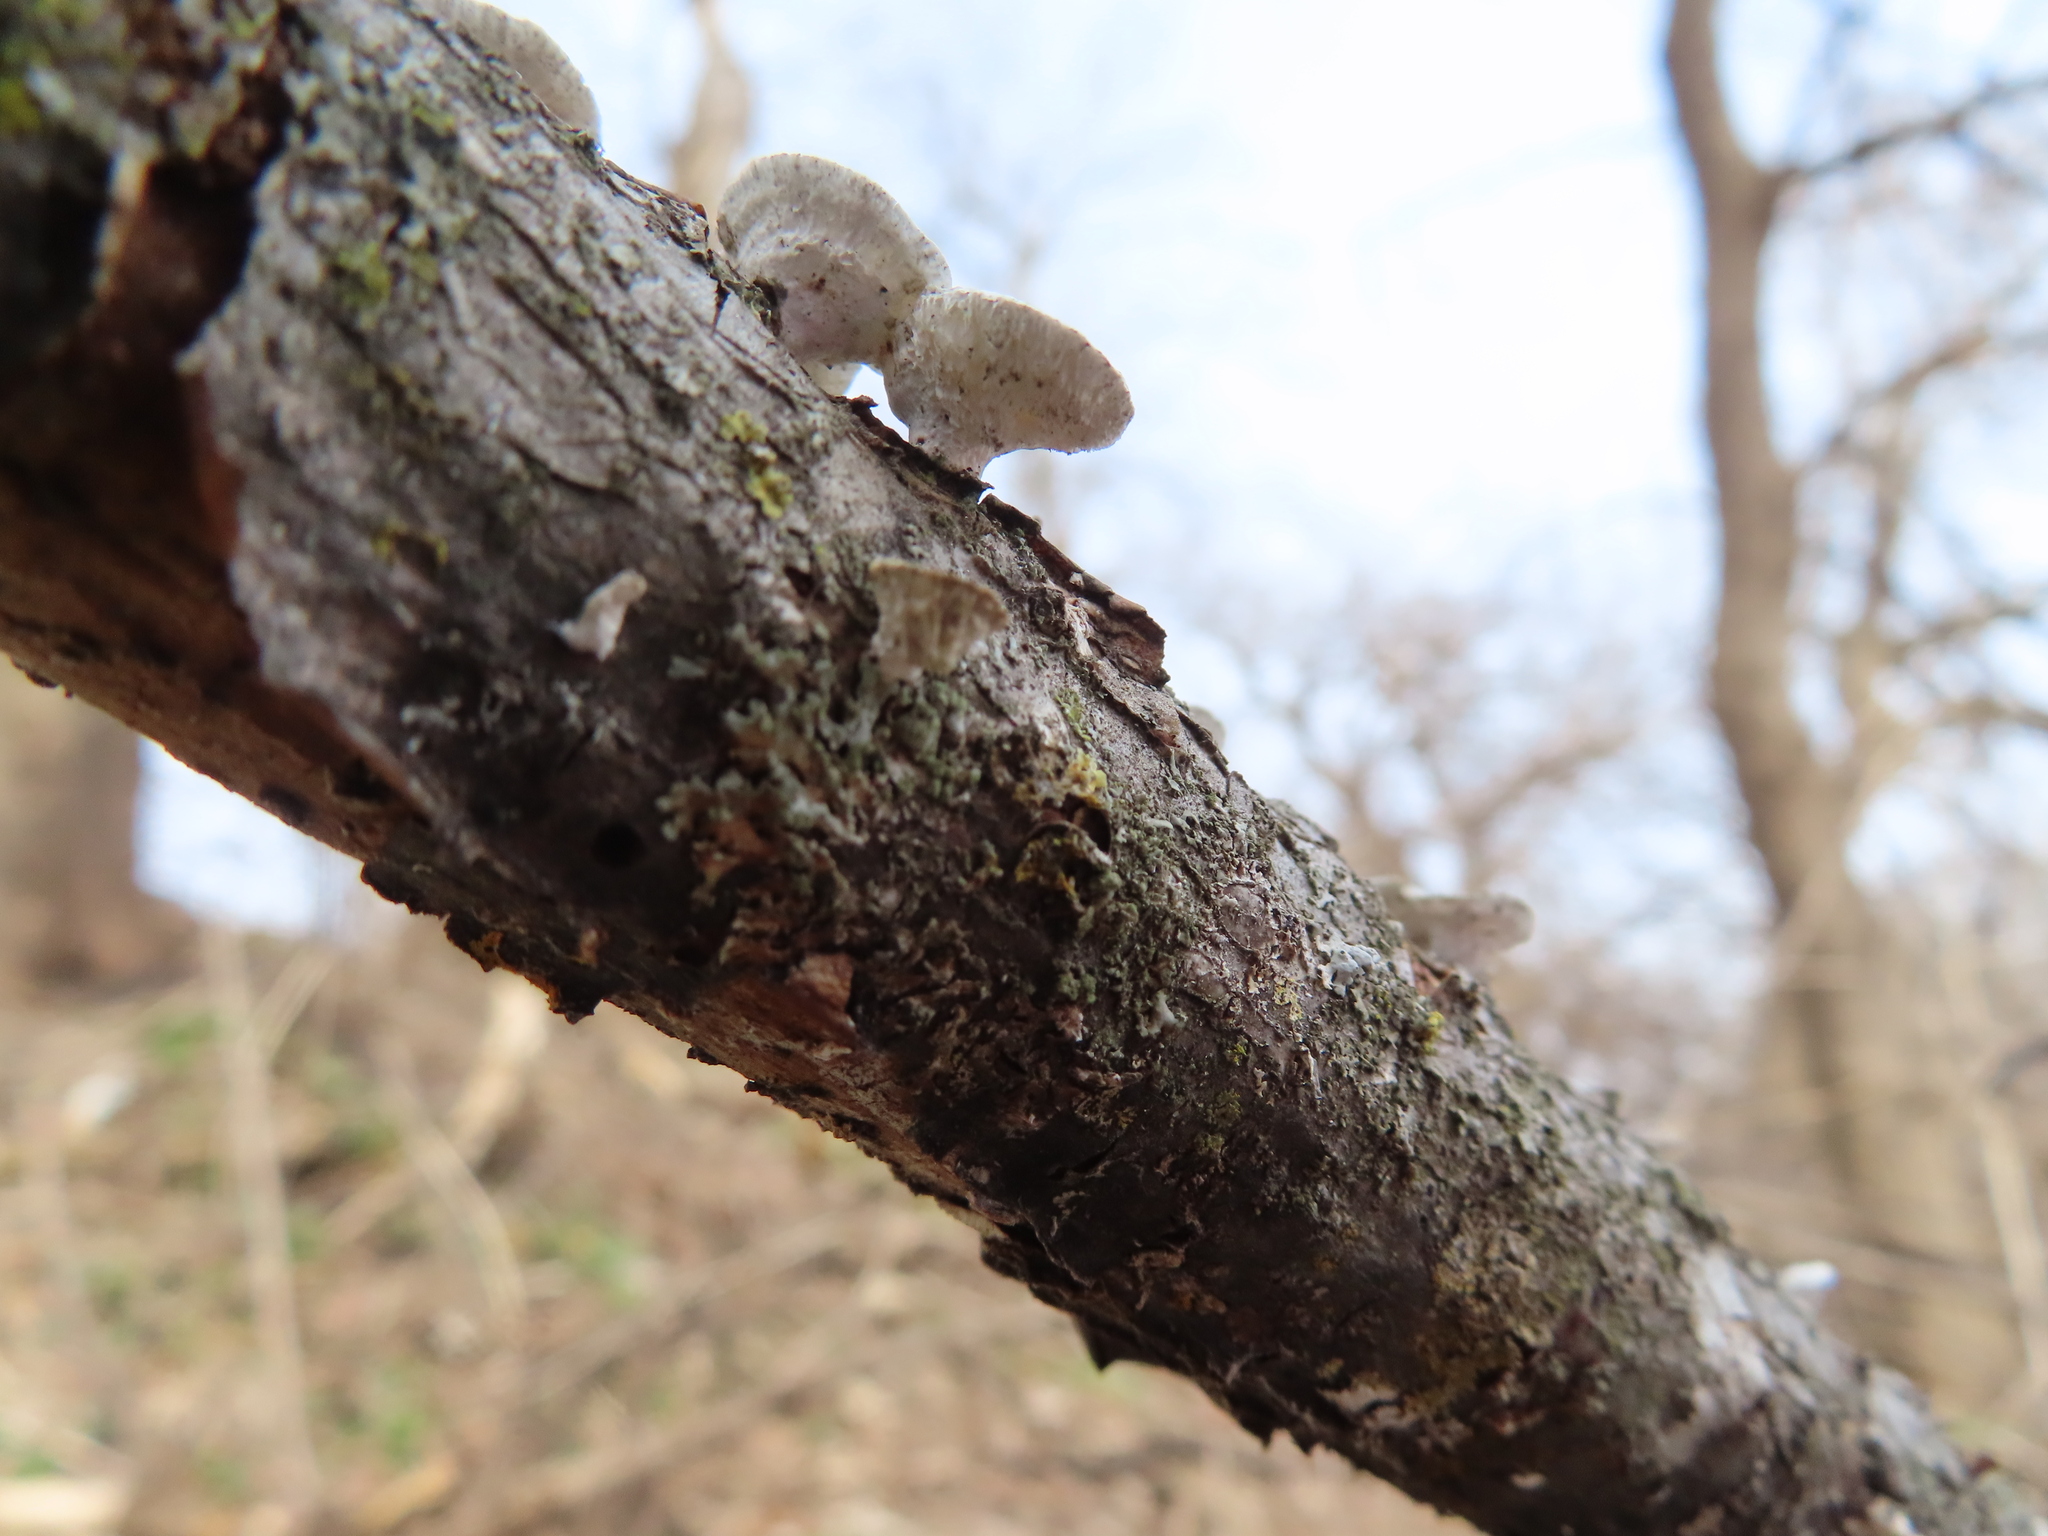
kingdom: Fungi
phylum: Basidiomycota
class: Agaricomycetes
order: Polyporales
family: Polyporaceae
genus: Poronidulus
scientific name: Poronidulus conchifer
